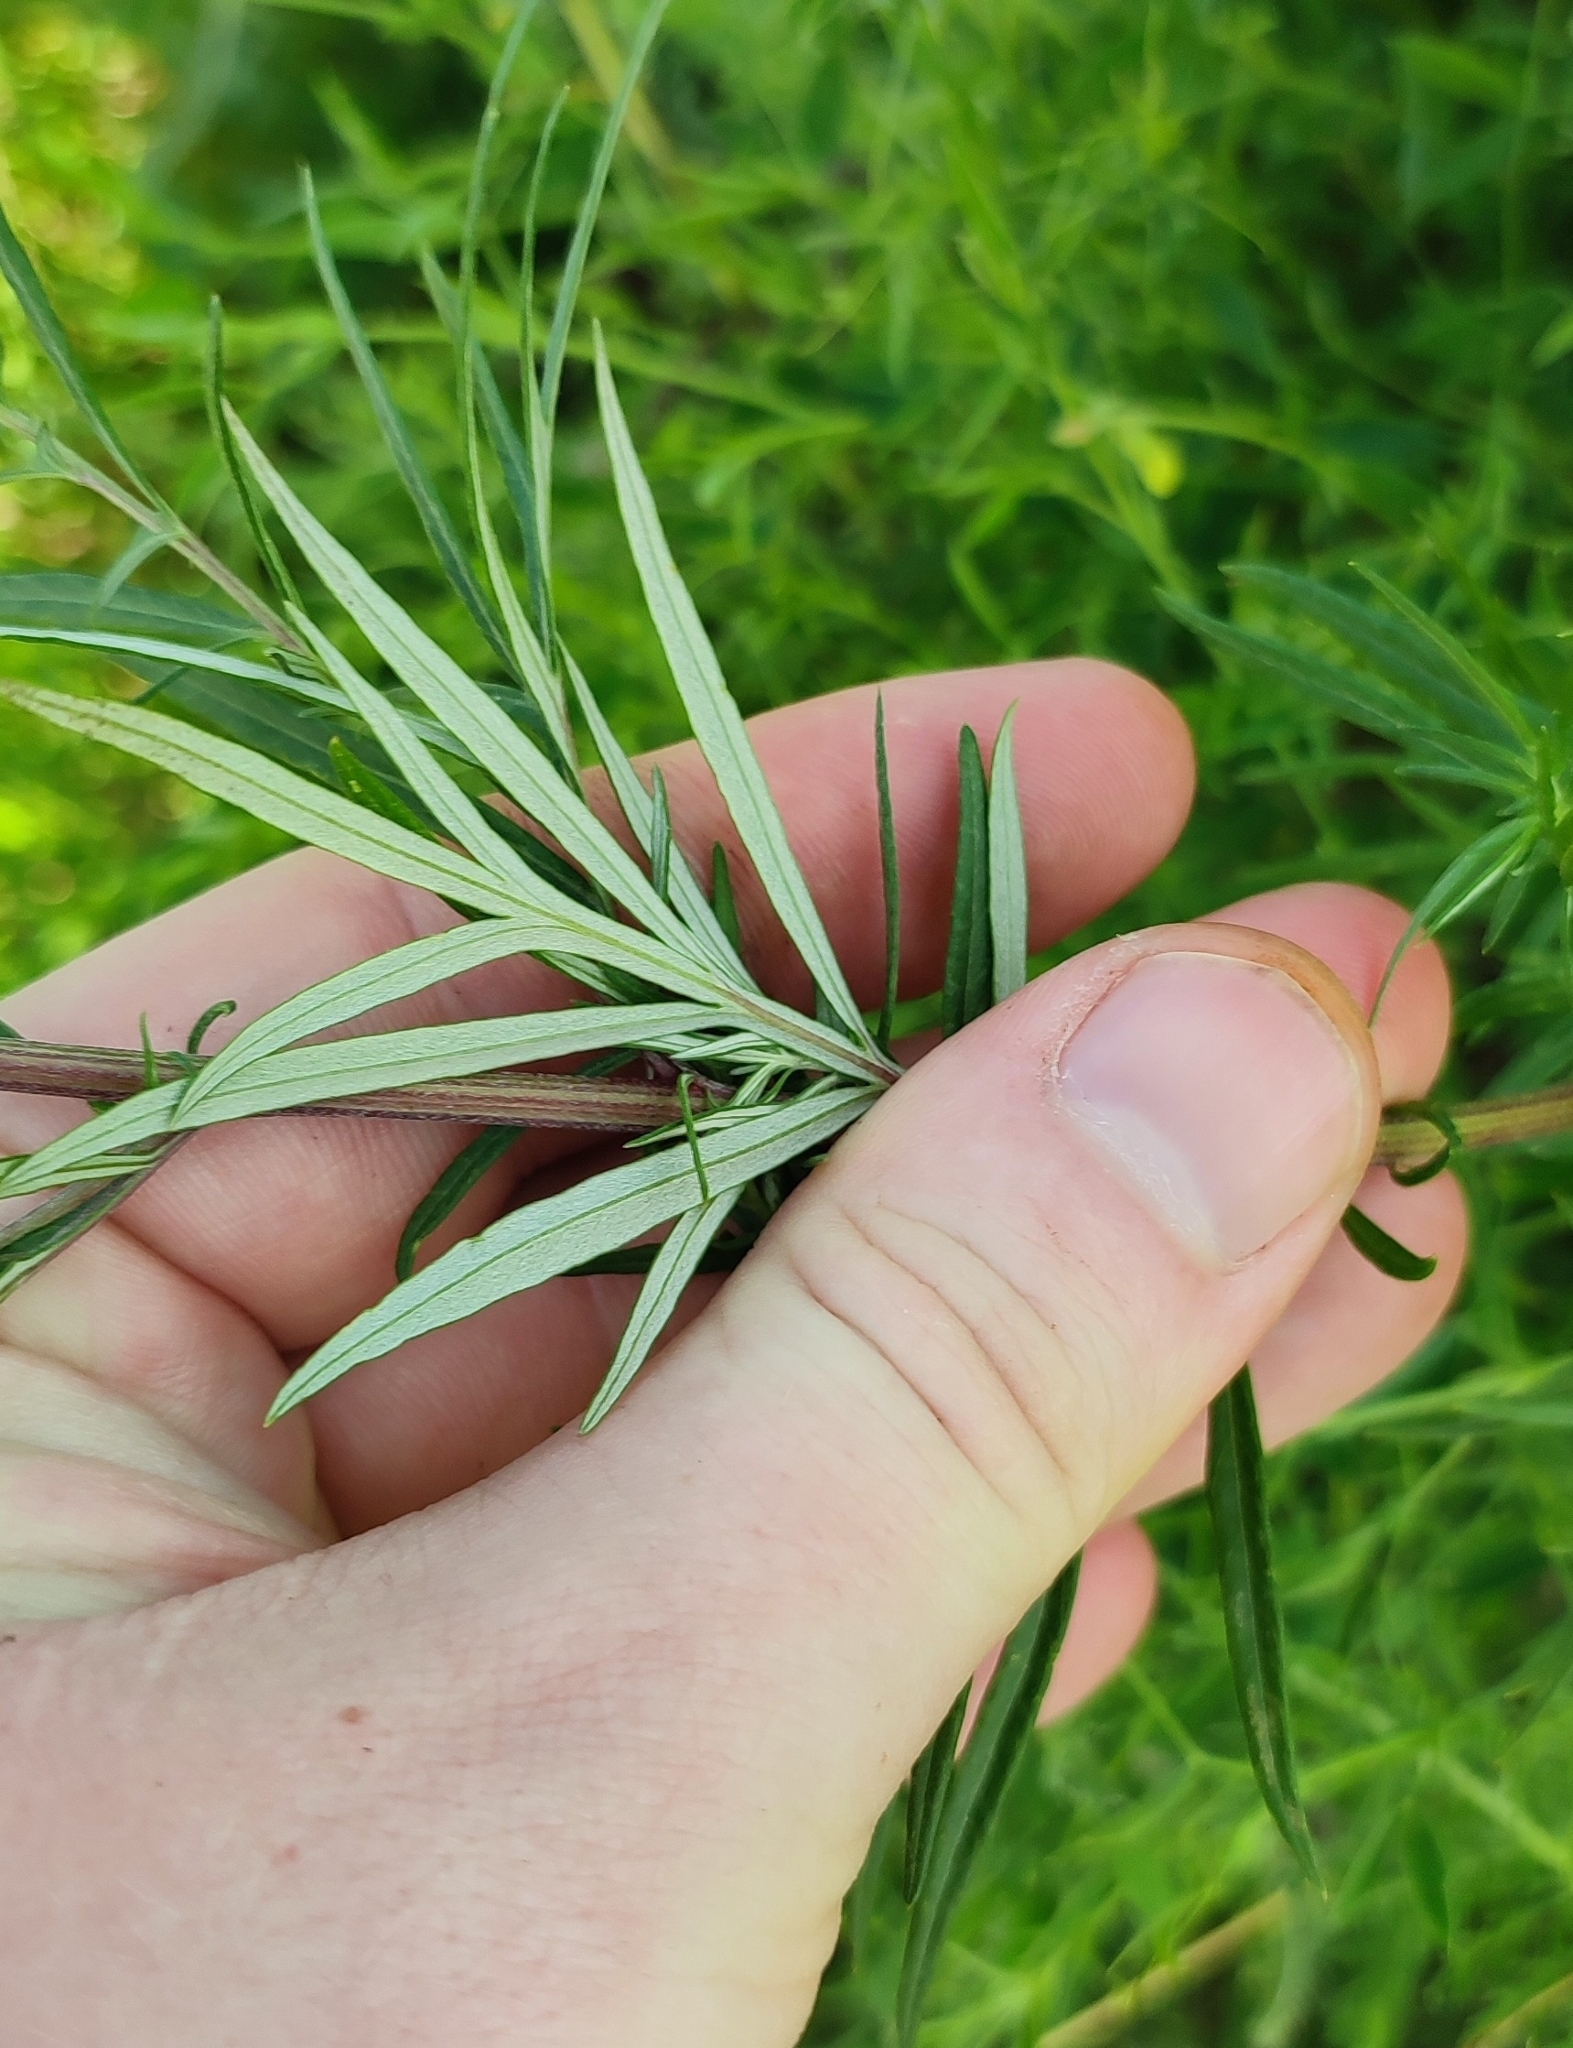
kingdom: Plantae
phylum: Tracheophyta
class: Magnoliopsida
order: Asterales
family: Asteraceae
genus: Artemisia
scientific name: Artemisia vulgaris
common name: Mugwort
